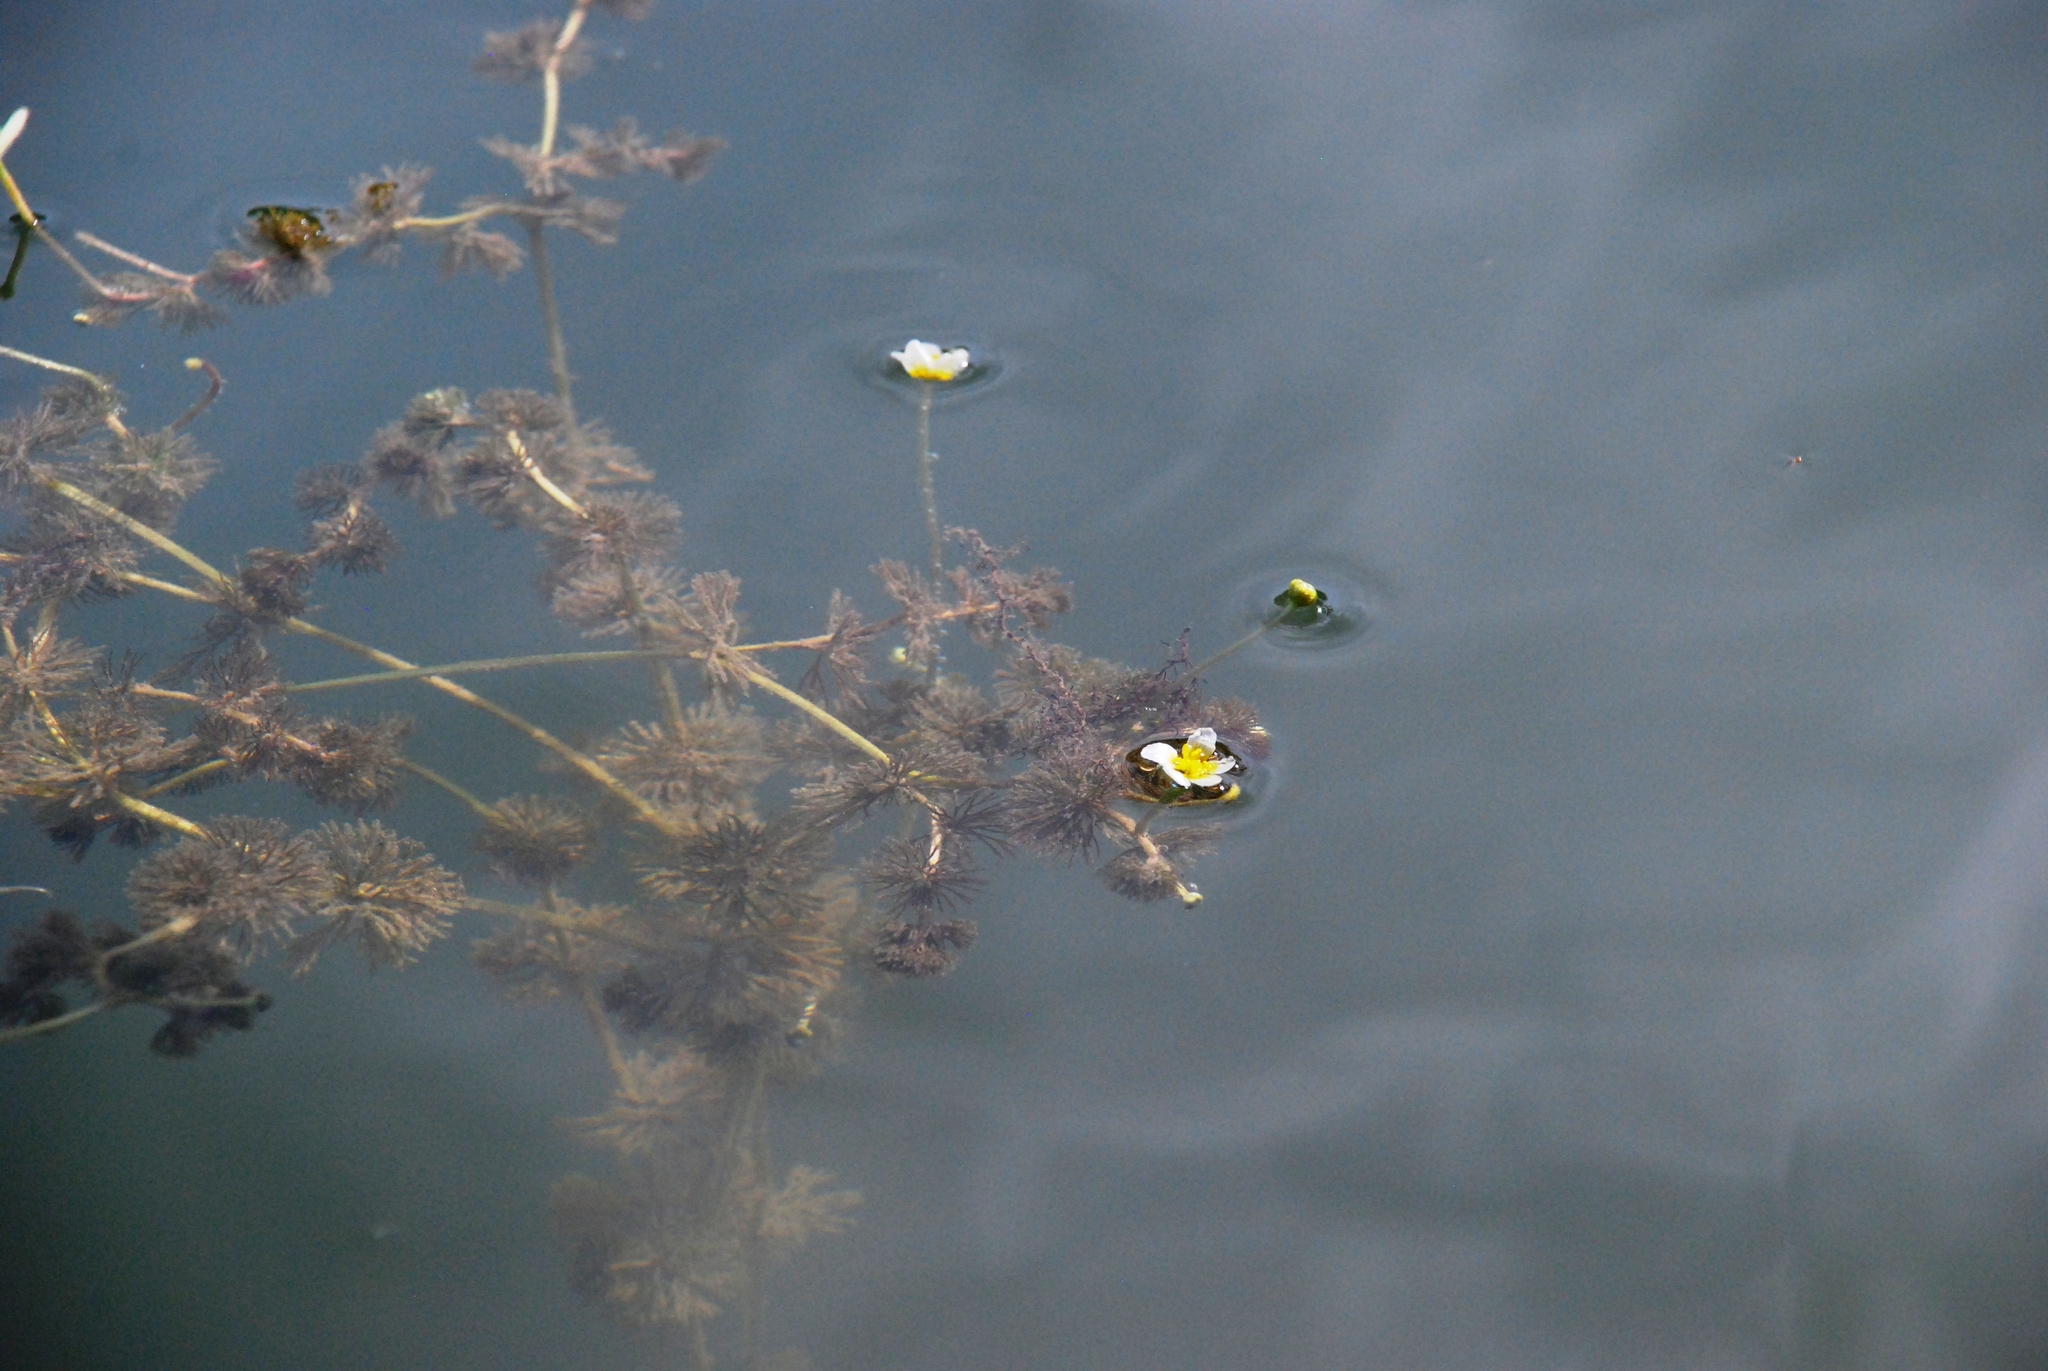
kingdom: Plantae
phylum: Tracheophyta
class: Magnoliopsida
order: Ranunculales
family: Ranunculaceae
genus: Ranunculus
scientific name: Ranunculus circinatus
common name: Fan-leaved water-crowfoot
